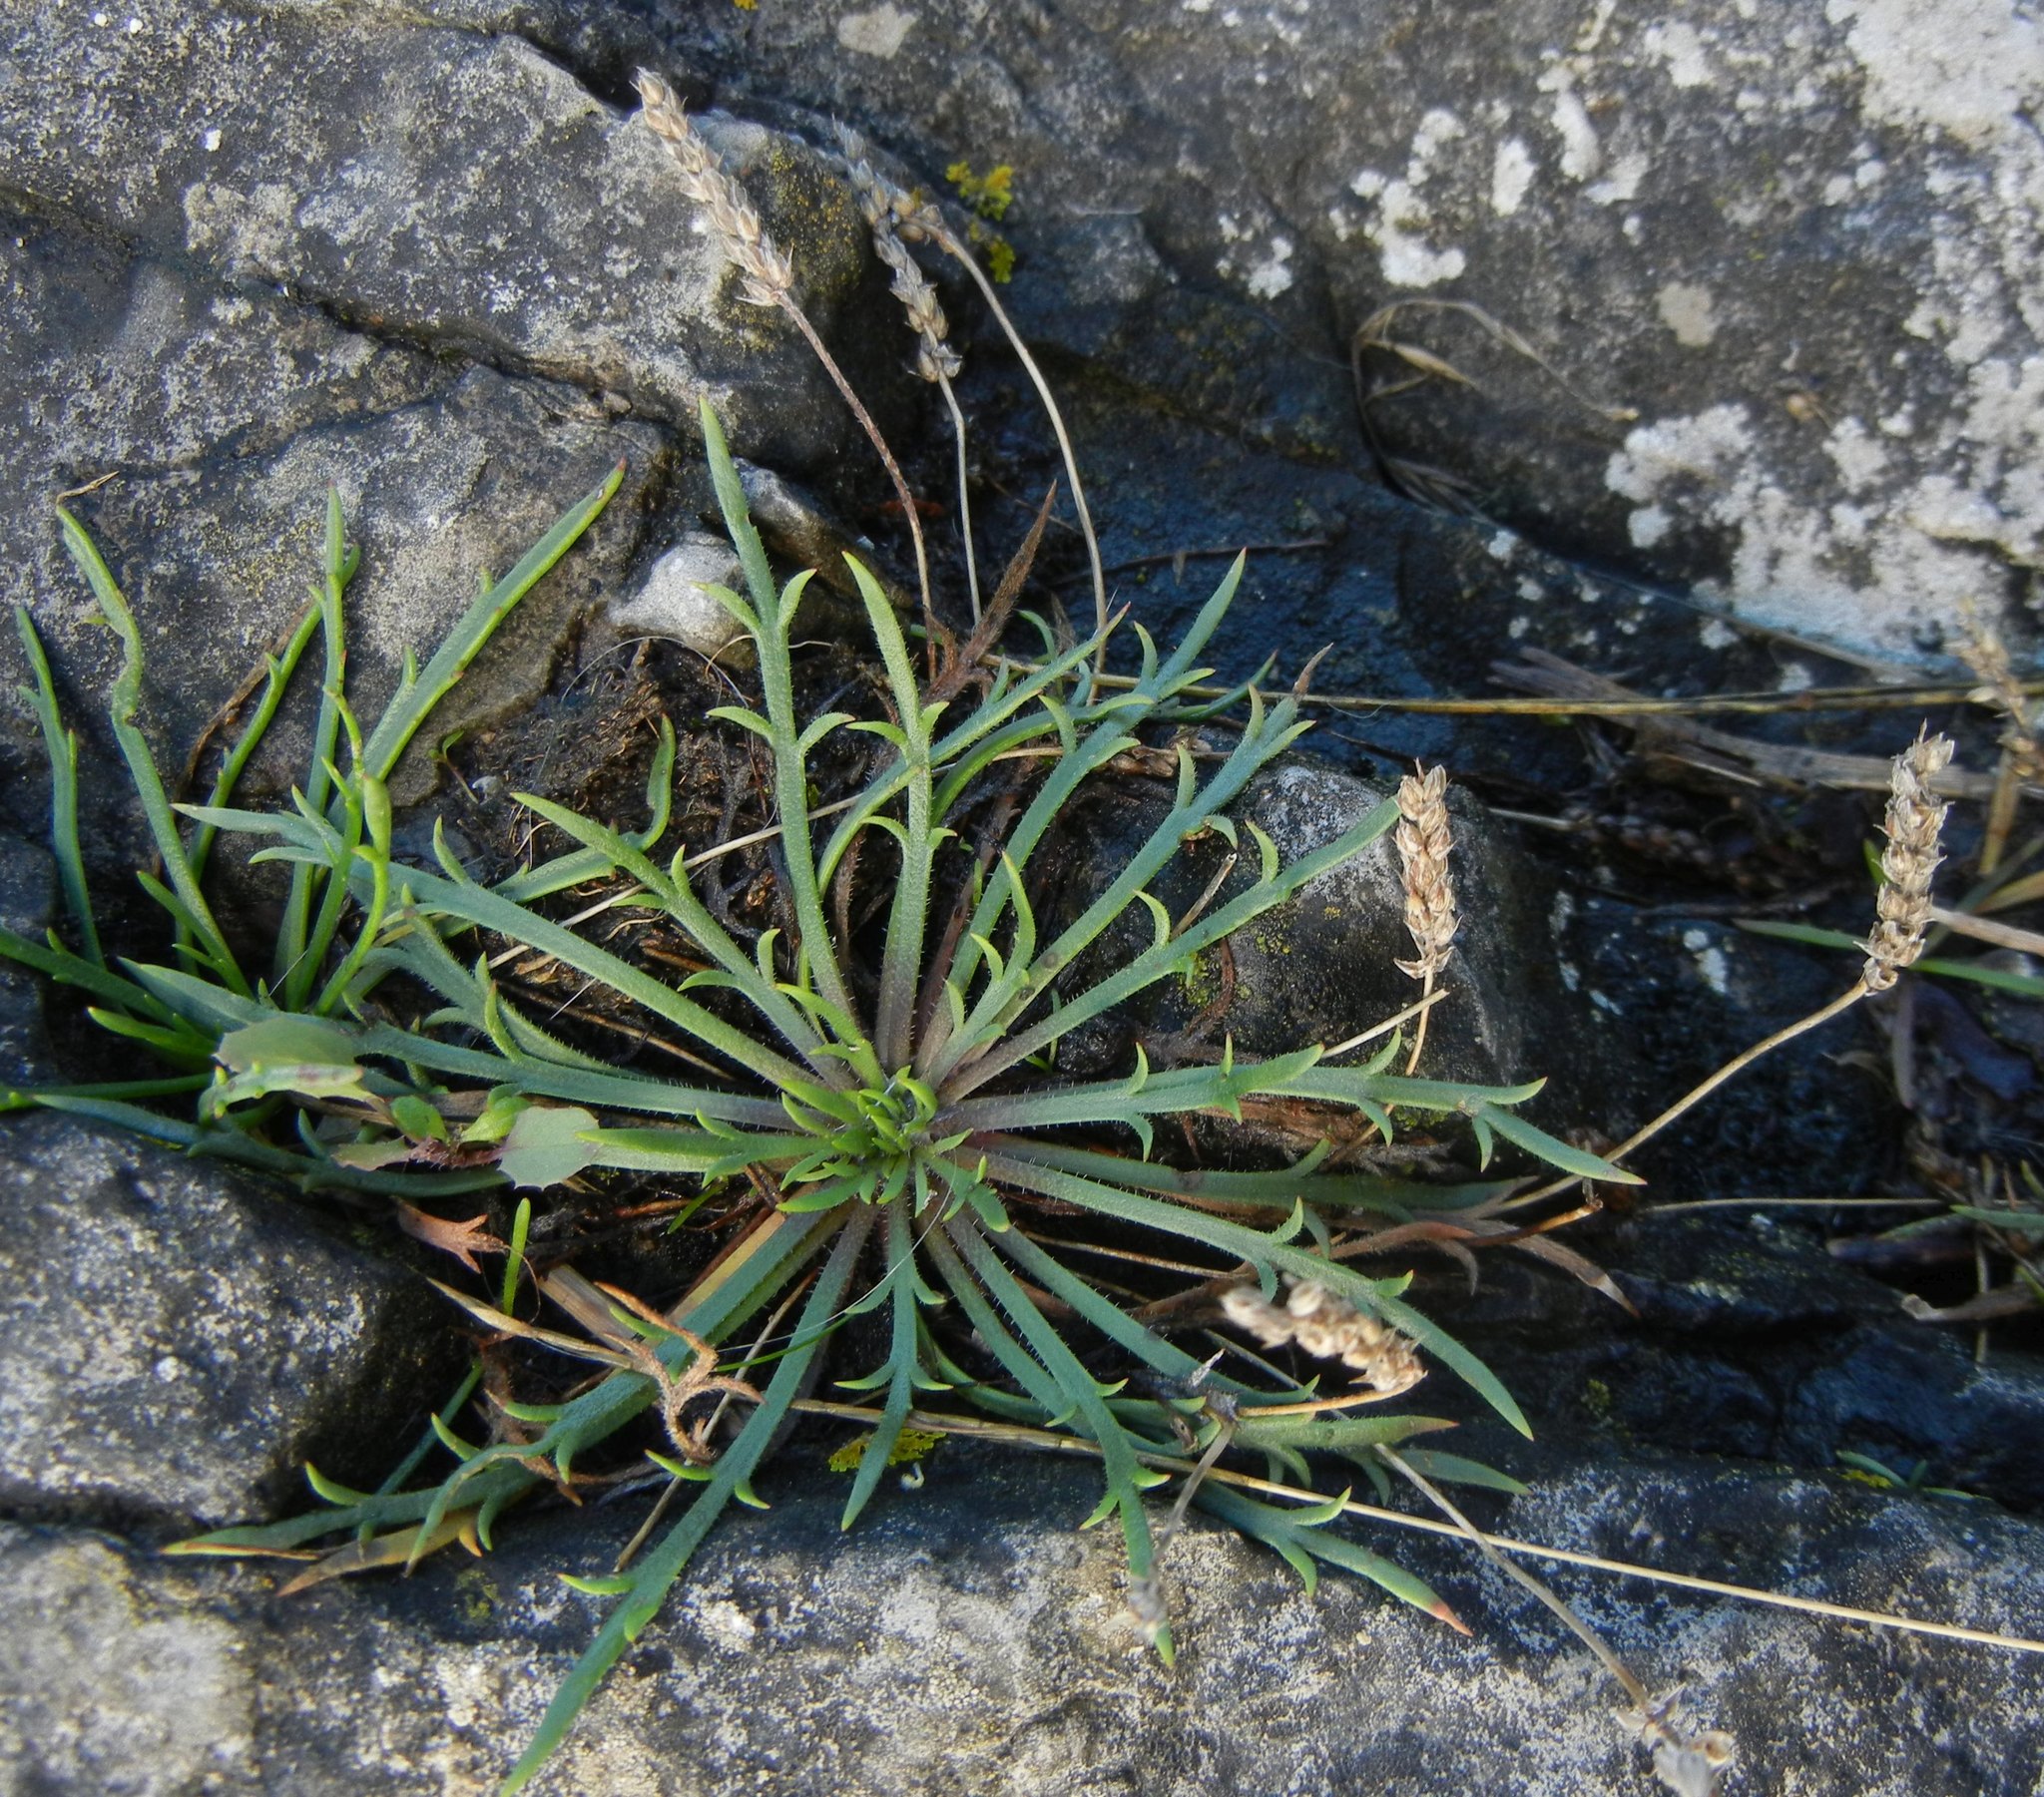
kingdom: Plantae
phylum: Tracheophyta
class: Magnoliopsida
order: Lamiales
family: Plantaginaceae
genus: Plantago
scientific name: Plantago coronopus
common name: Buck's-horn plantain
